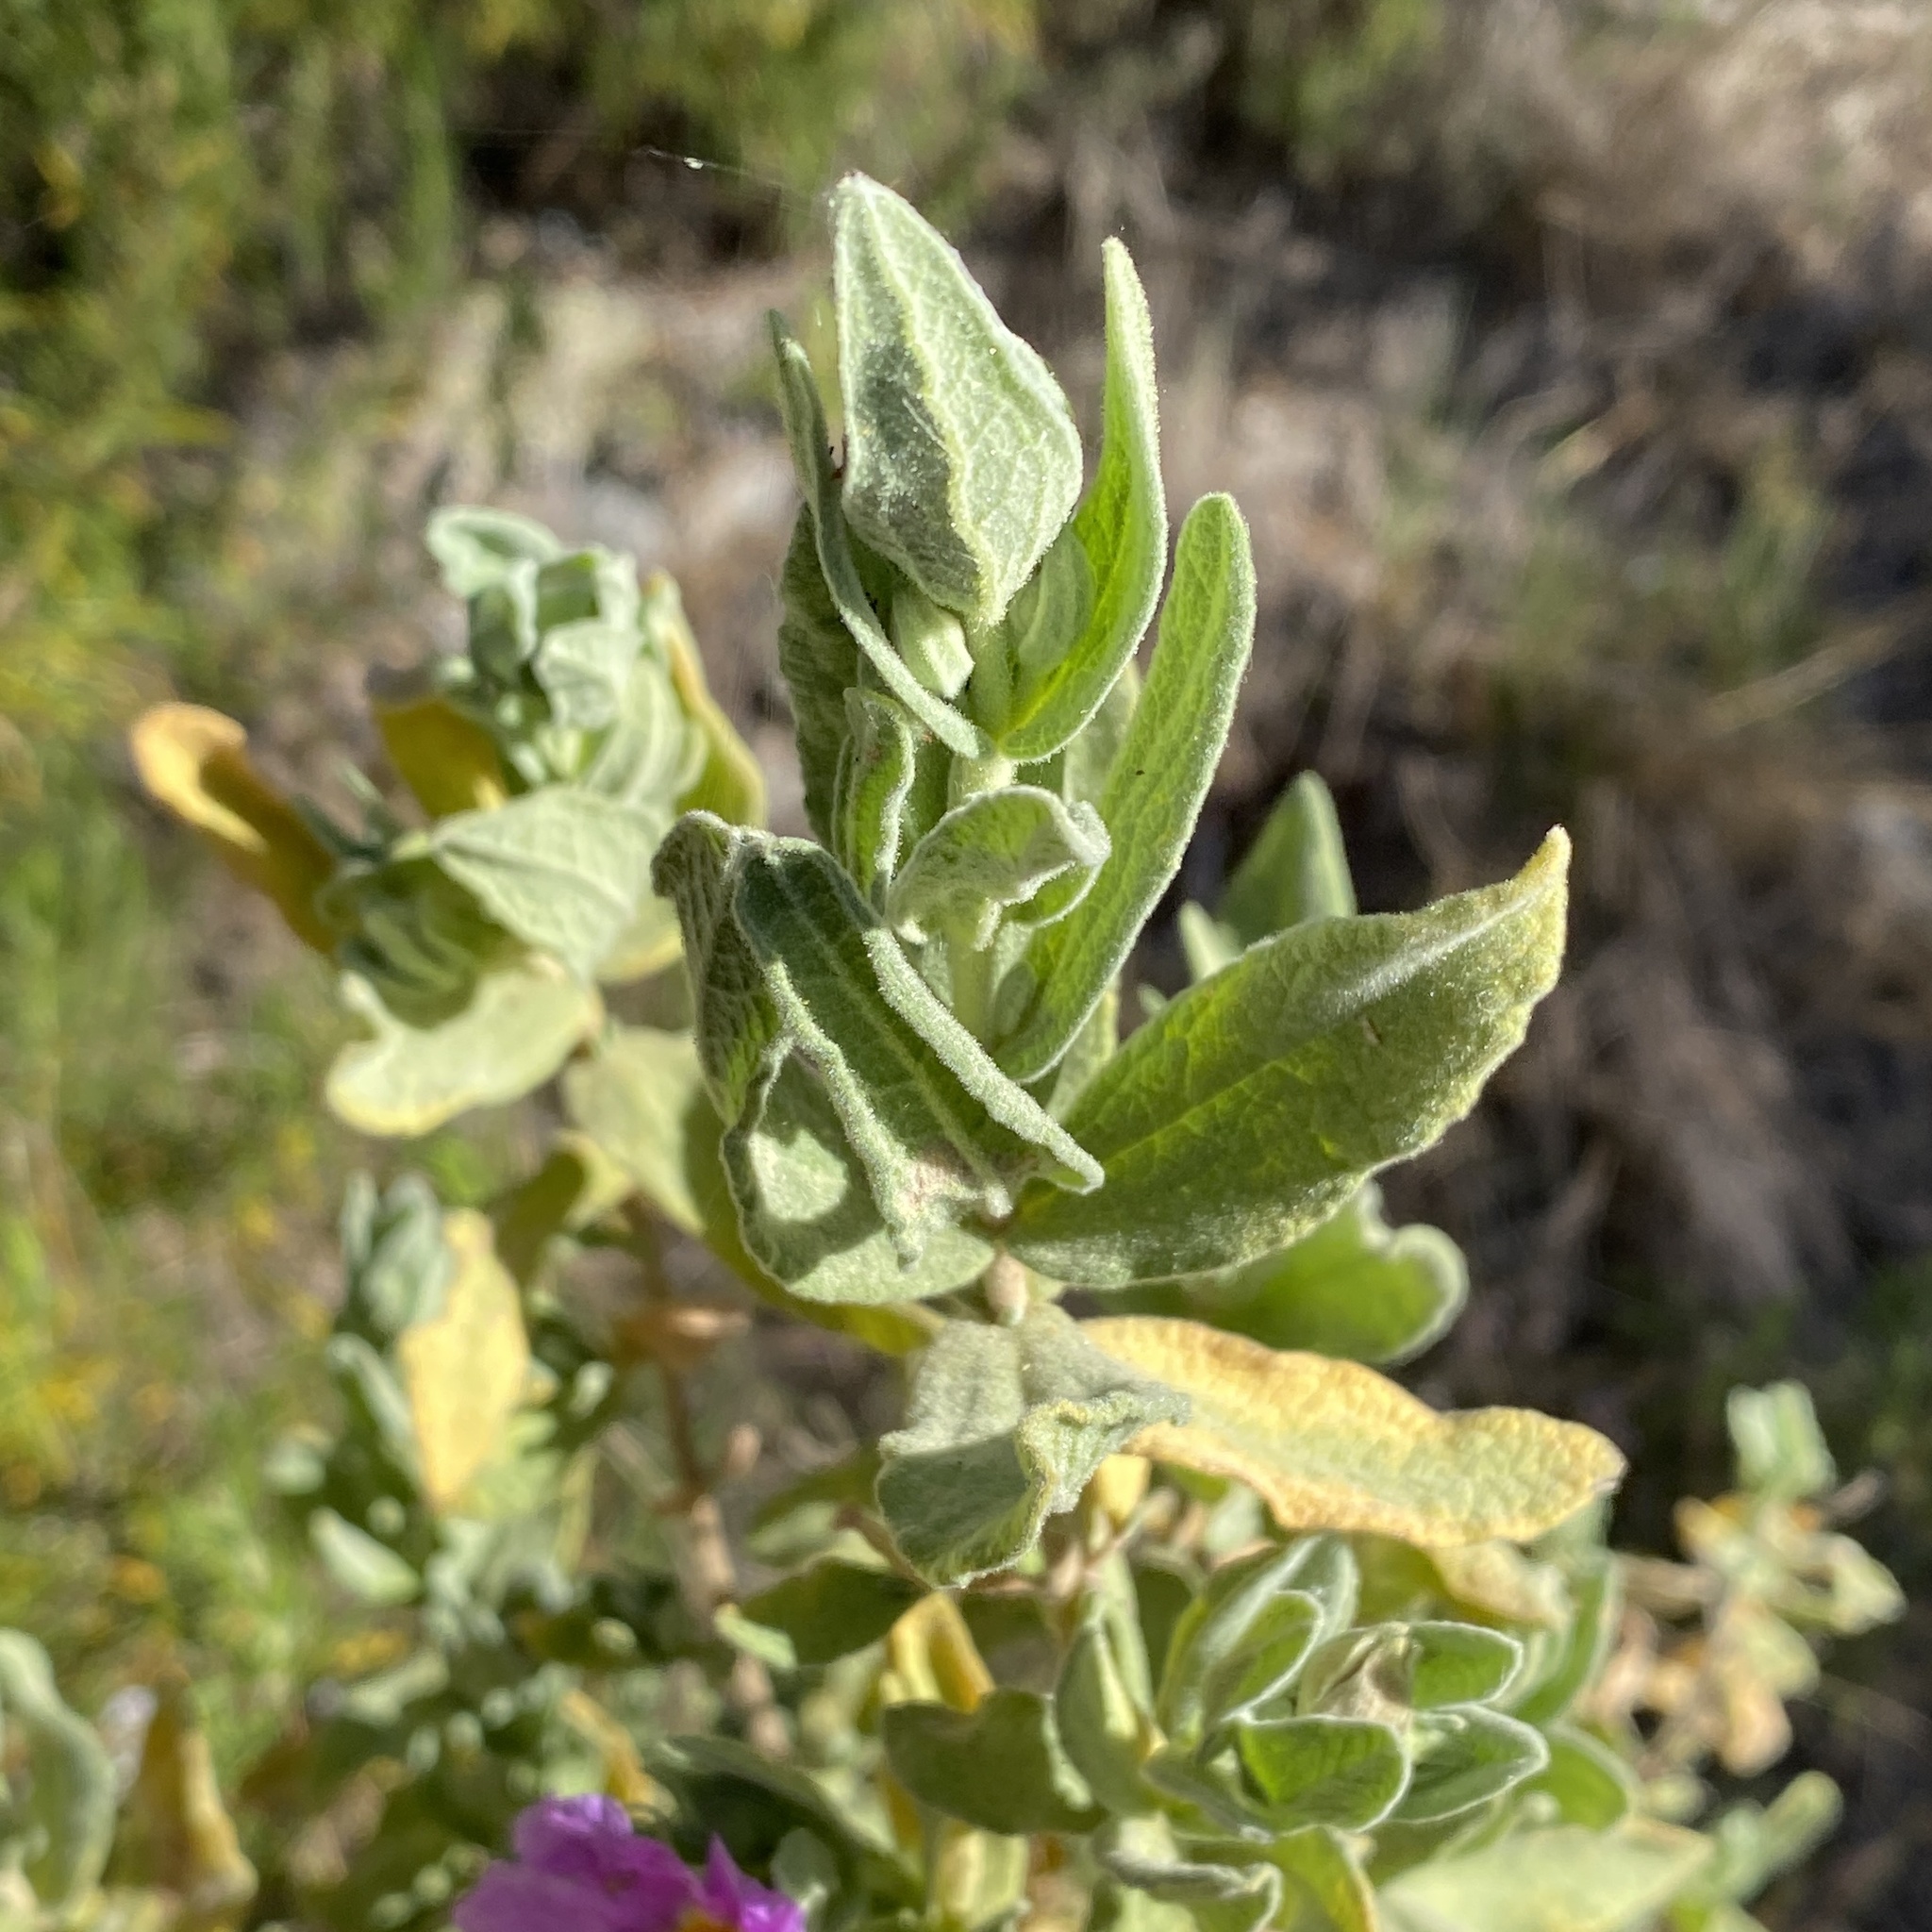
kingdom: Plantae
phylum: Tracheophyta
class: Magnoliopsida
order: Malvales
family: Cistaceae
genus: Cistus
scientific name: Cistus albidus
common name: White-leaf rock-rose
